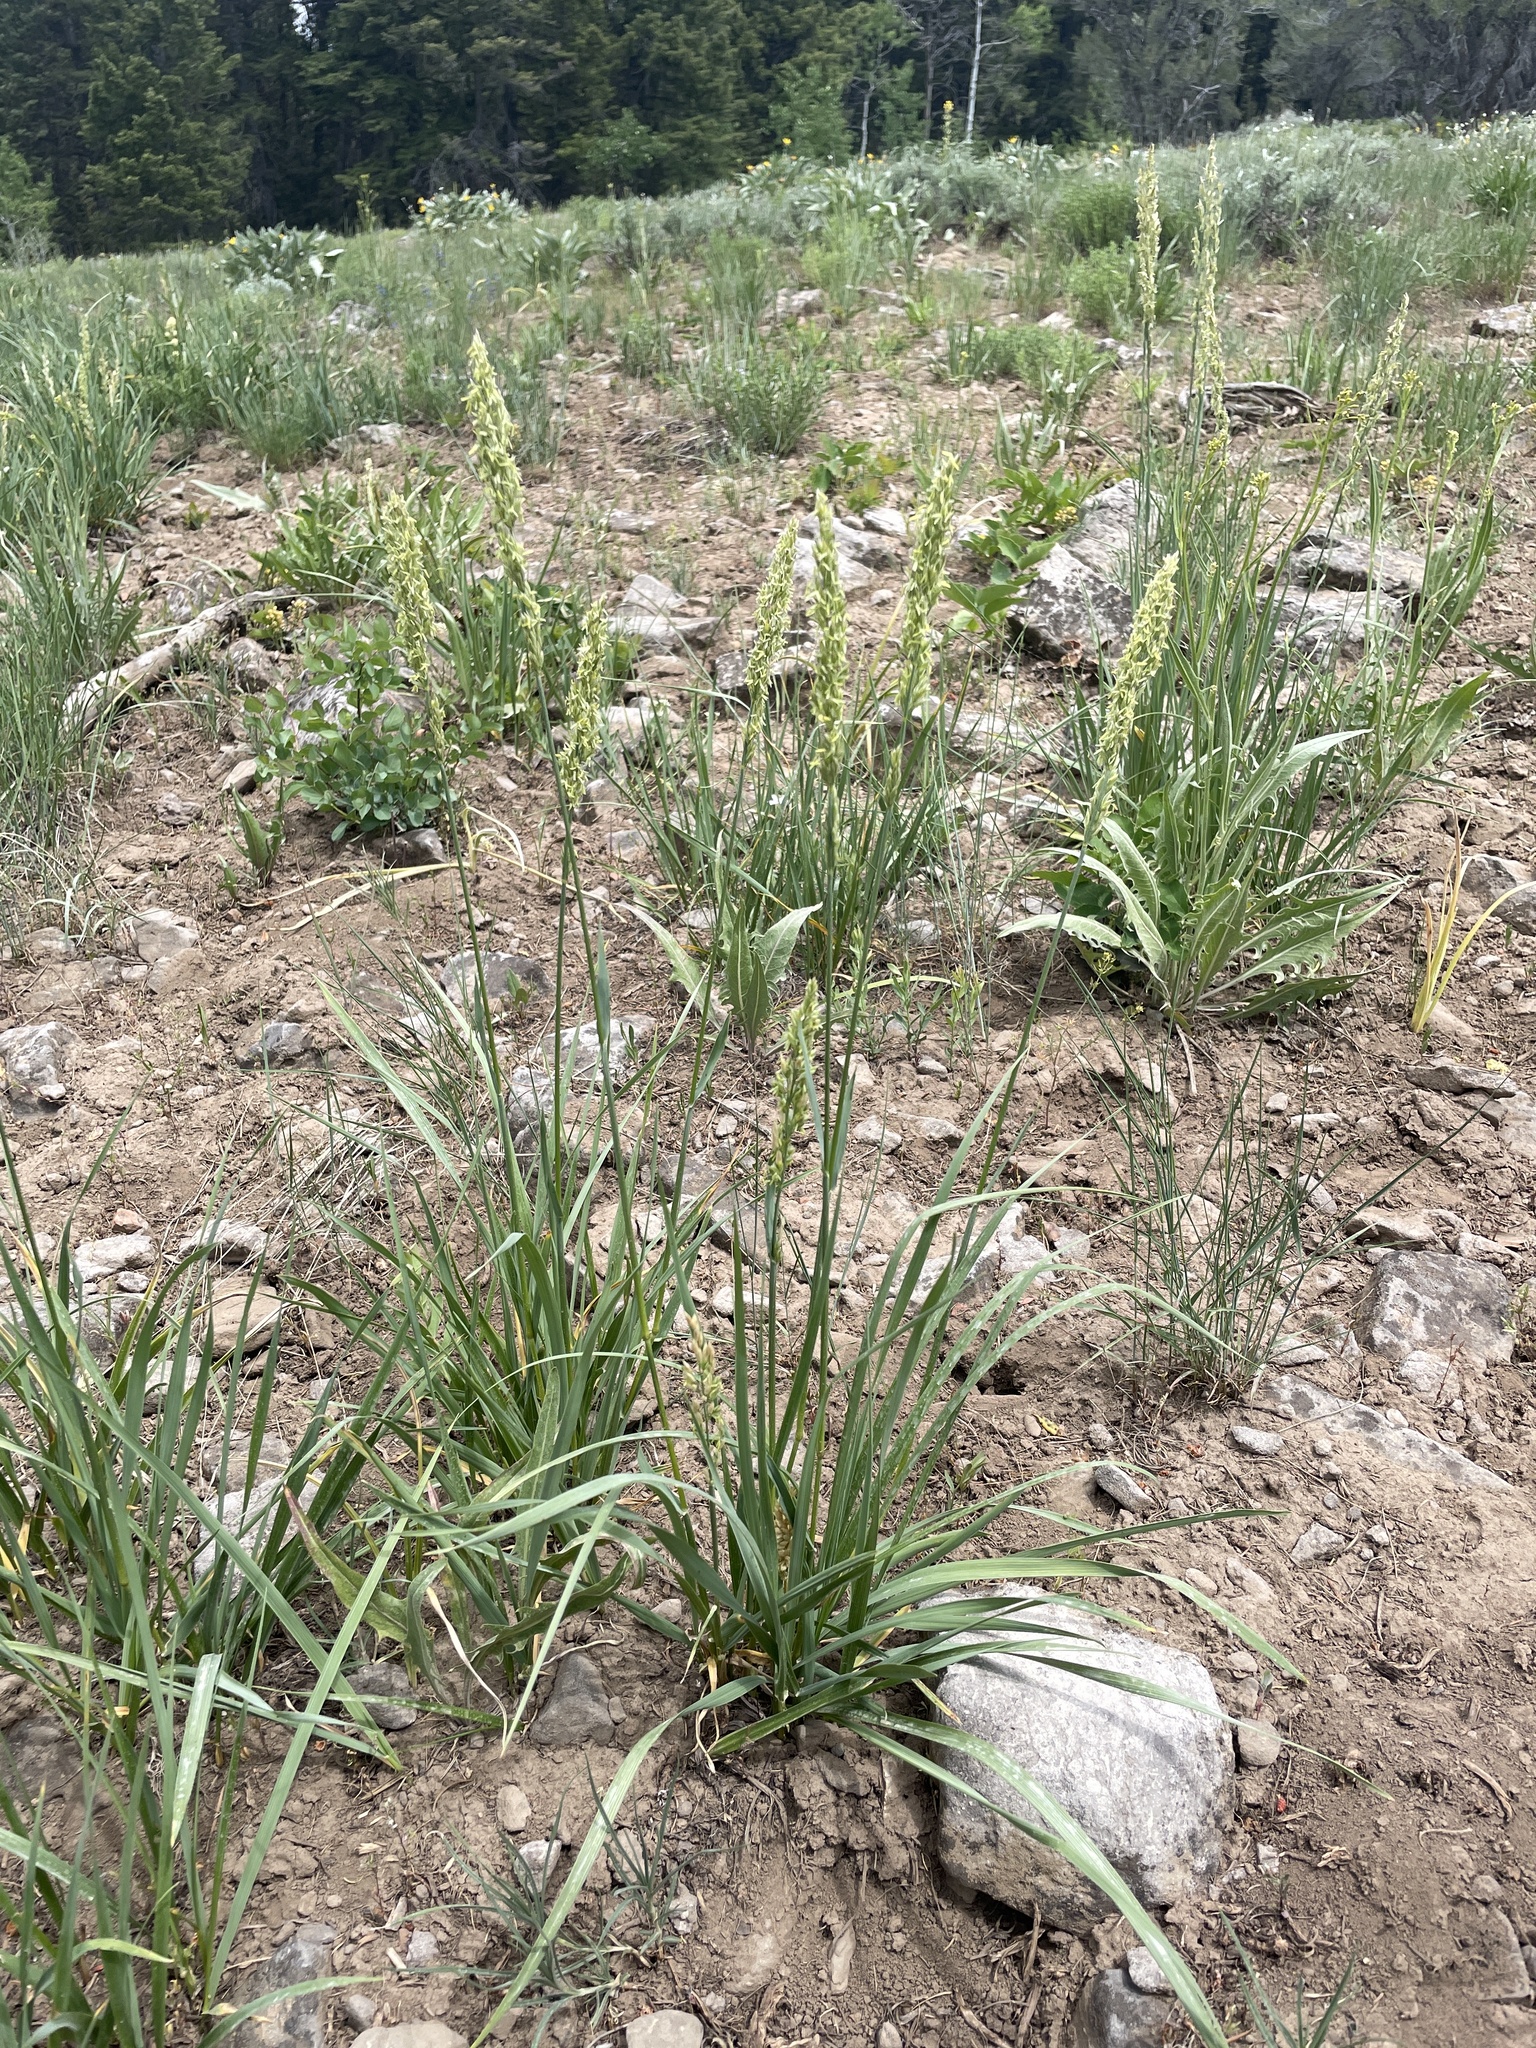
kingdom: Plantae
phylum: Tracheophyta
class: Liliopsida
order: Poales
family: Poaceae
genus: Koeleria
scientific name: Koeleria macrantha
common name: Crested hair-grass
